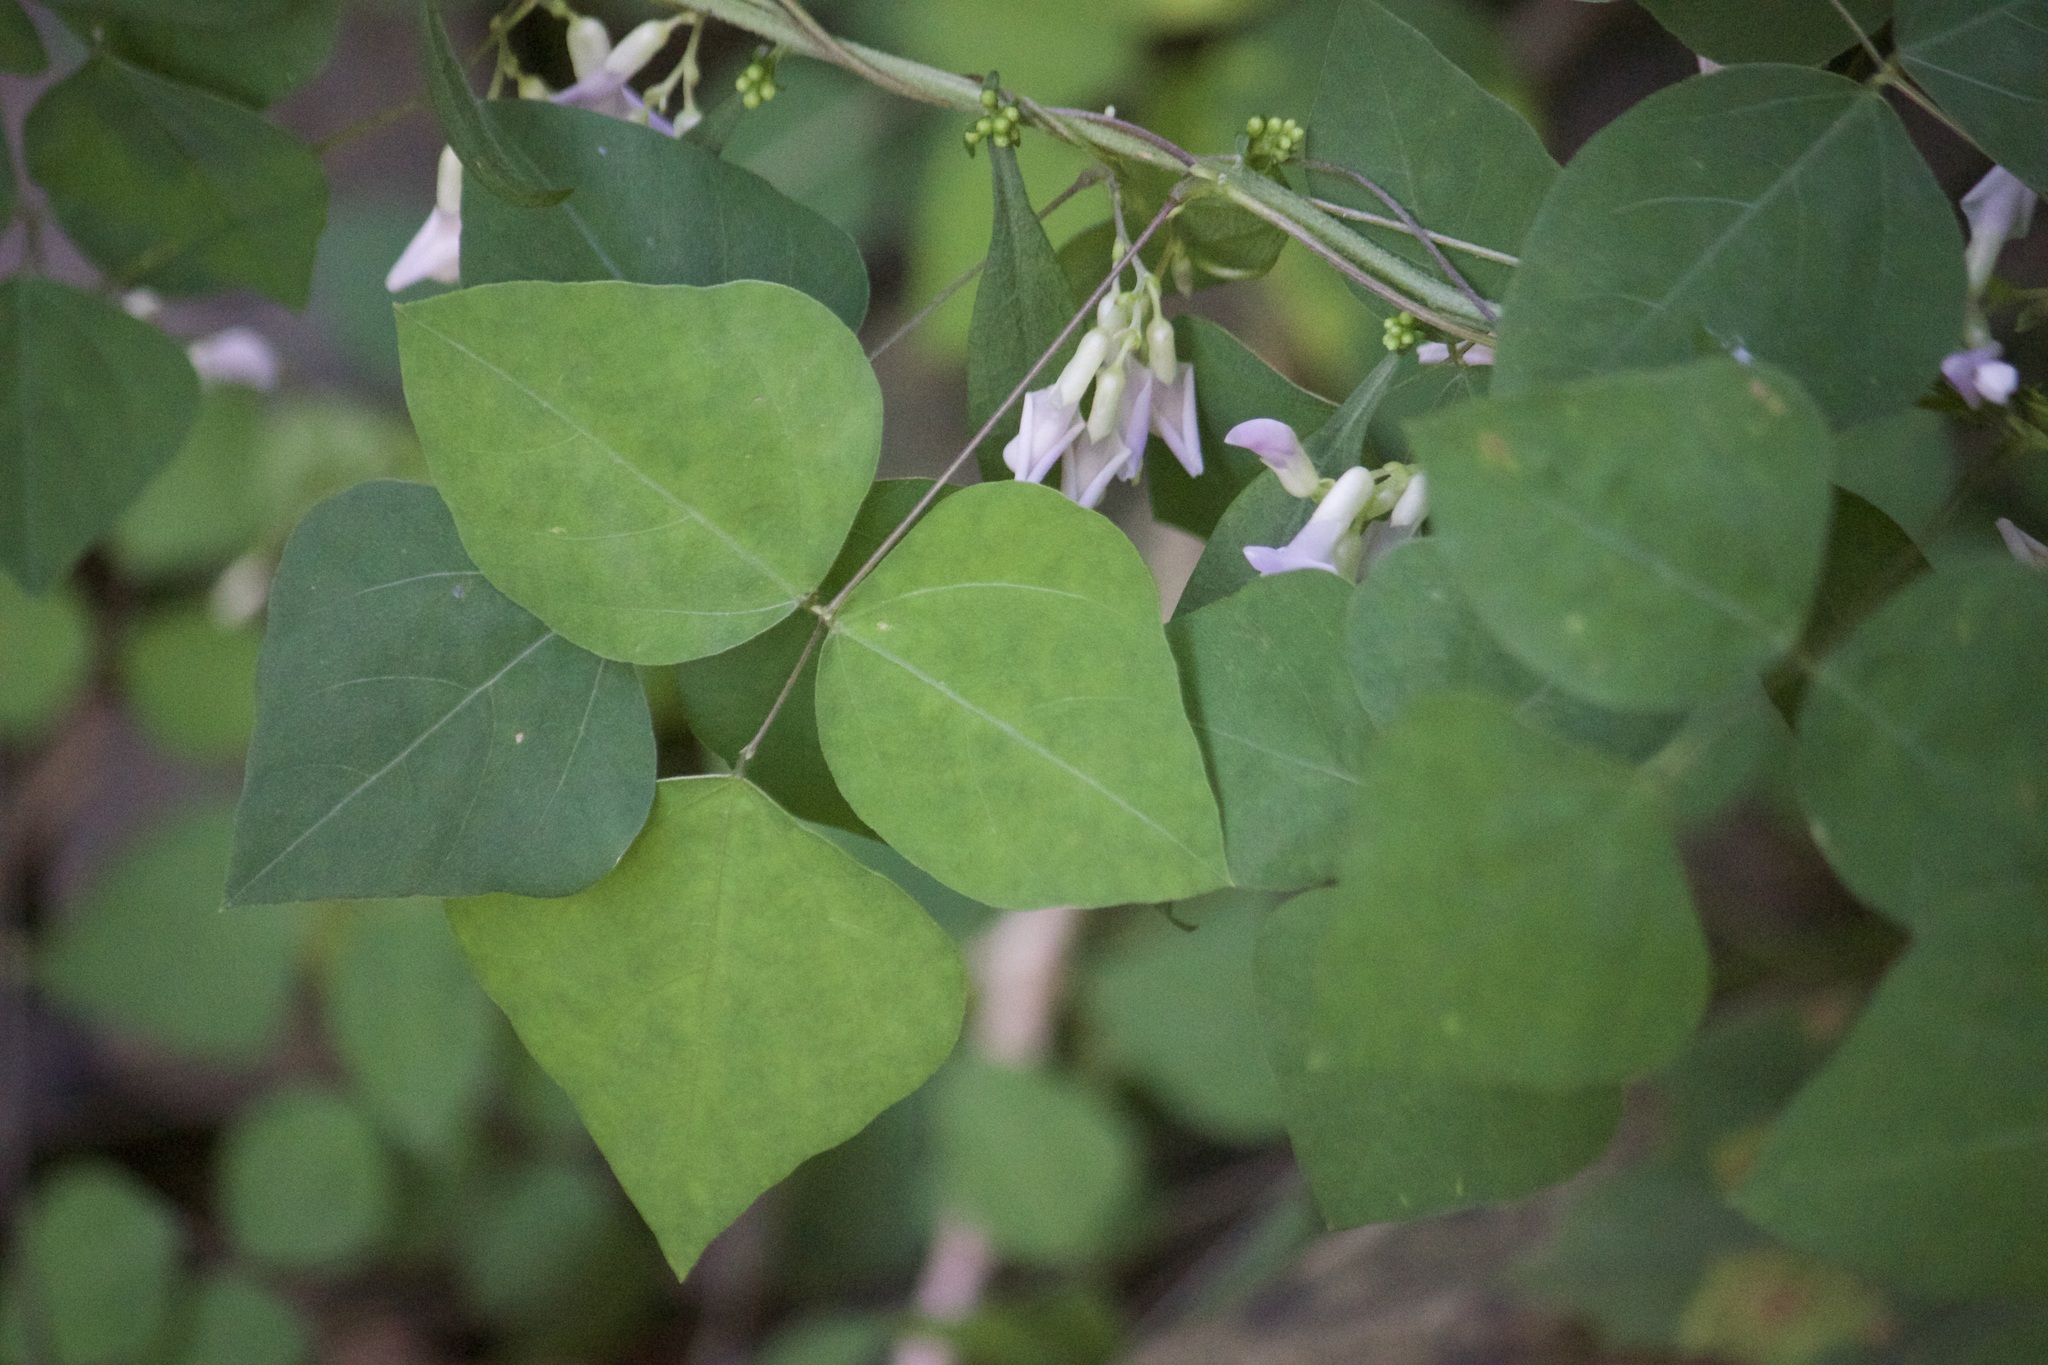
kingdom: Plantae
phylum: Tracheophyta
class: Magnoliopsida
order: Fabales
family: Fabaceae
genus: Amphicarpaea
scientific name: Amphicarpaea bracteata
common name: American hog peanut
